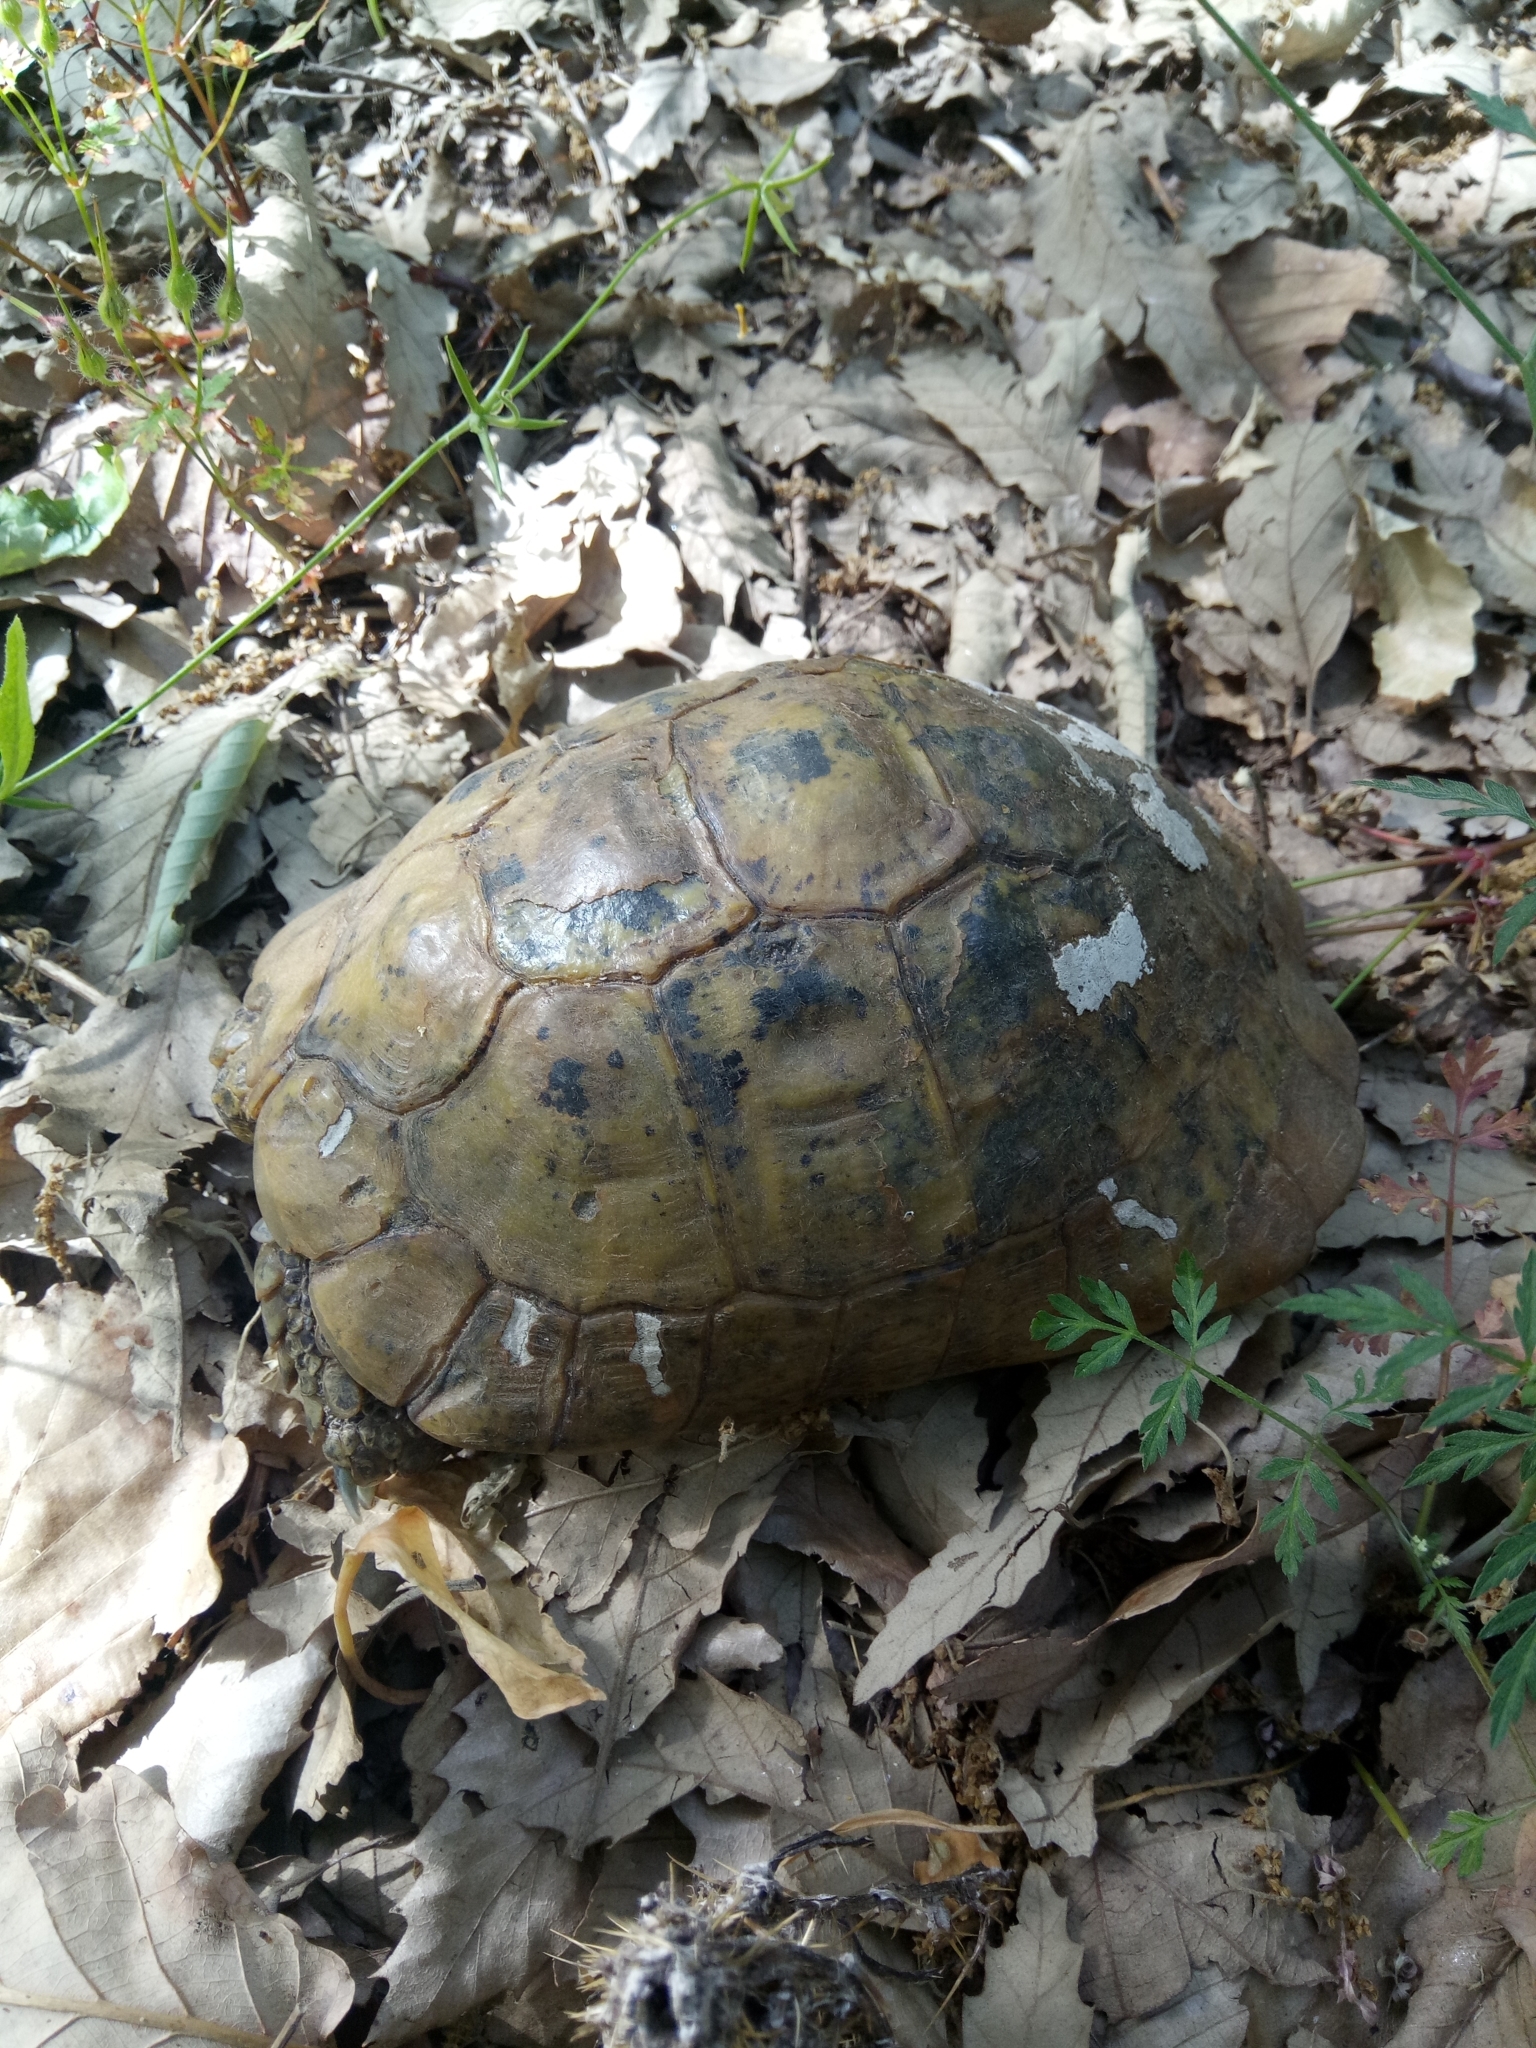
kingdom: Animalia
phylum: Chordata
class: Testudines
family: Testudinidae
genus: Testudo
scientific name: Testudo graeca
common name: Common tortoise
